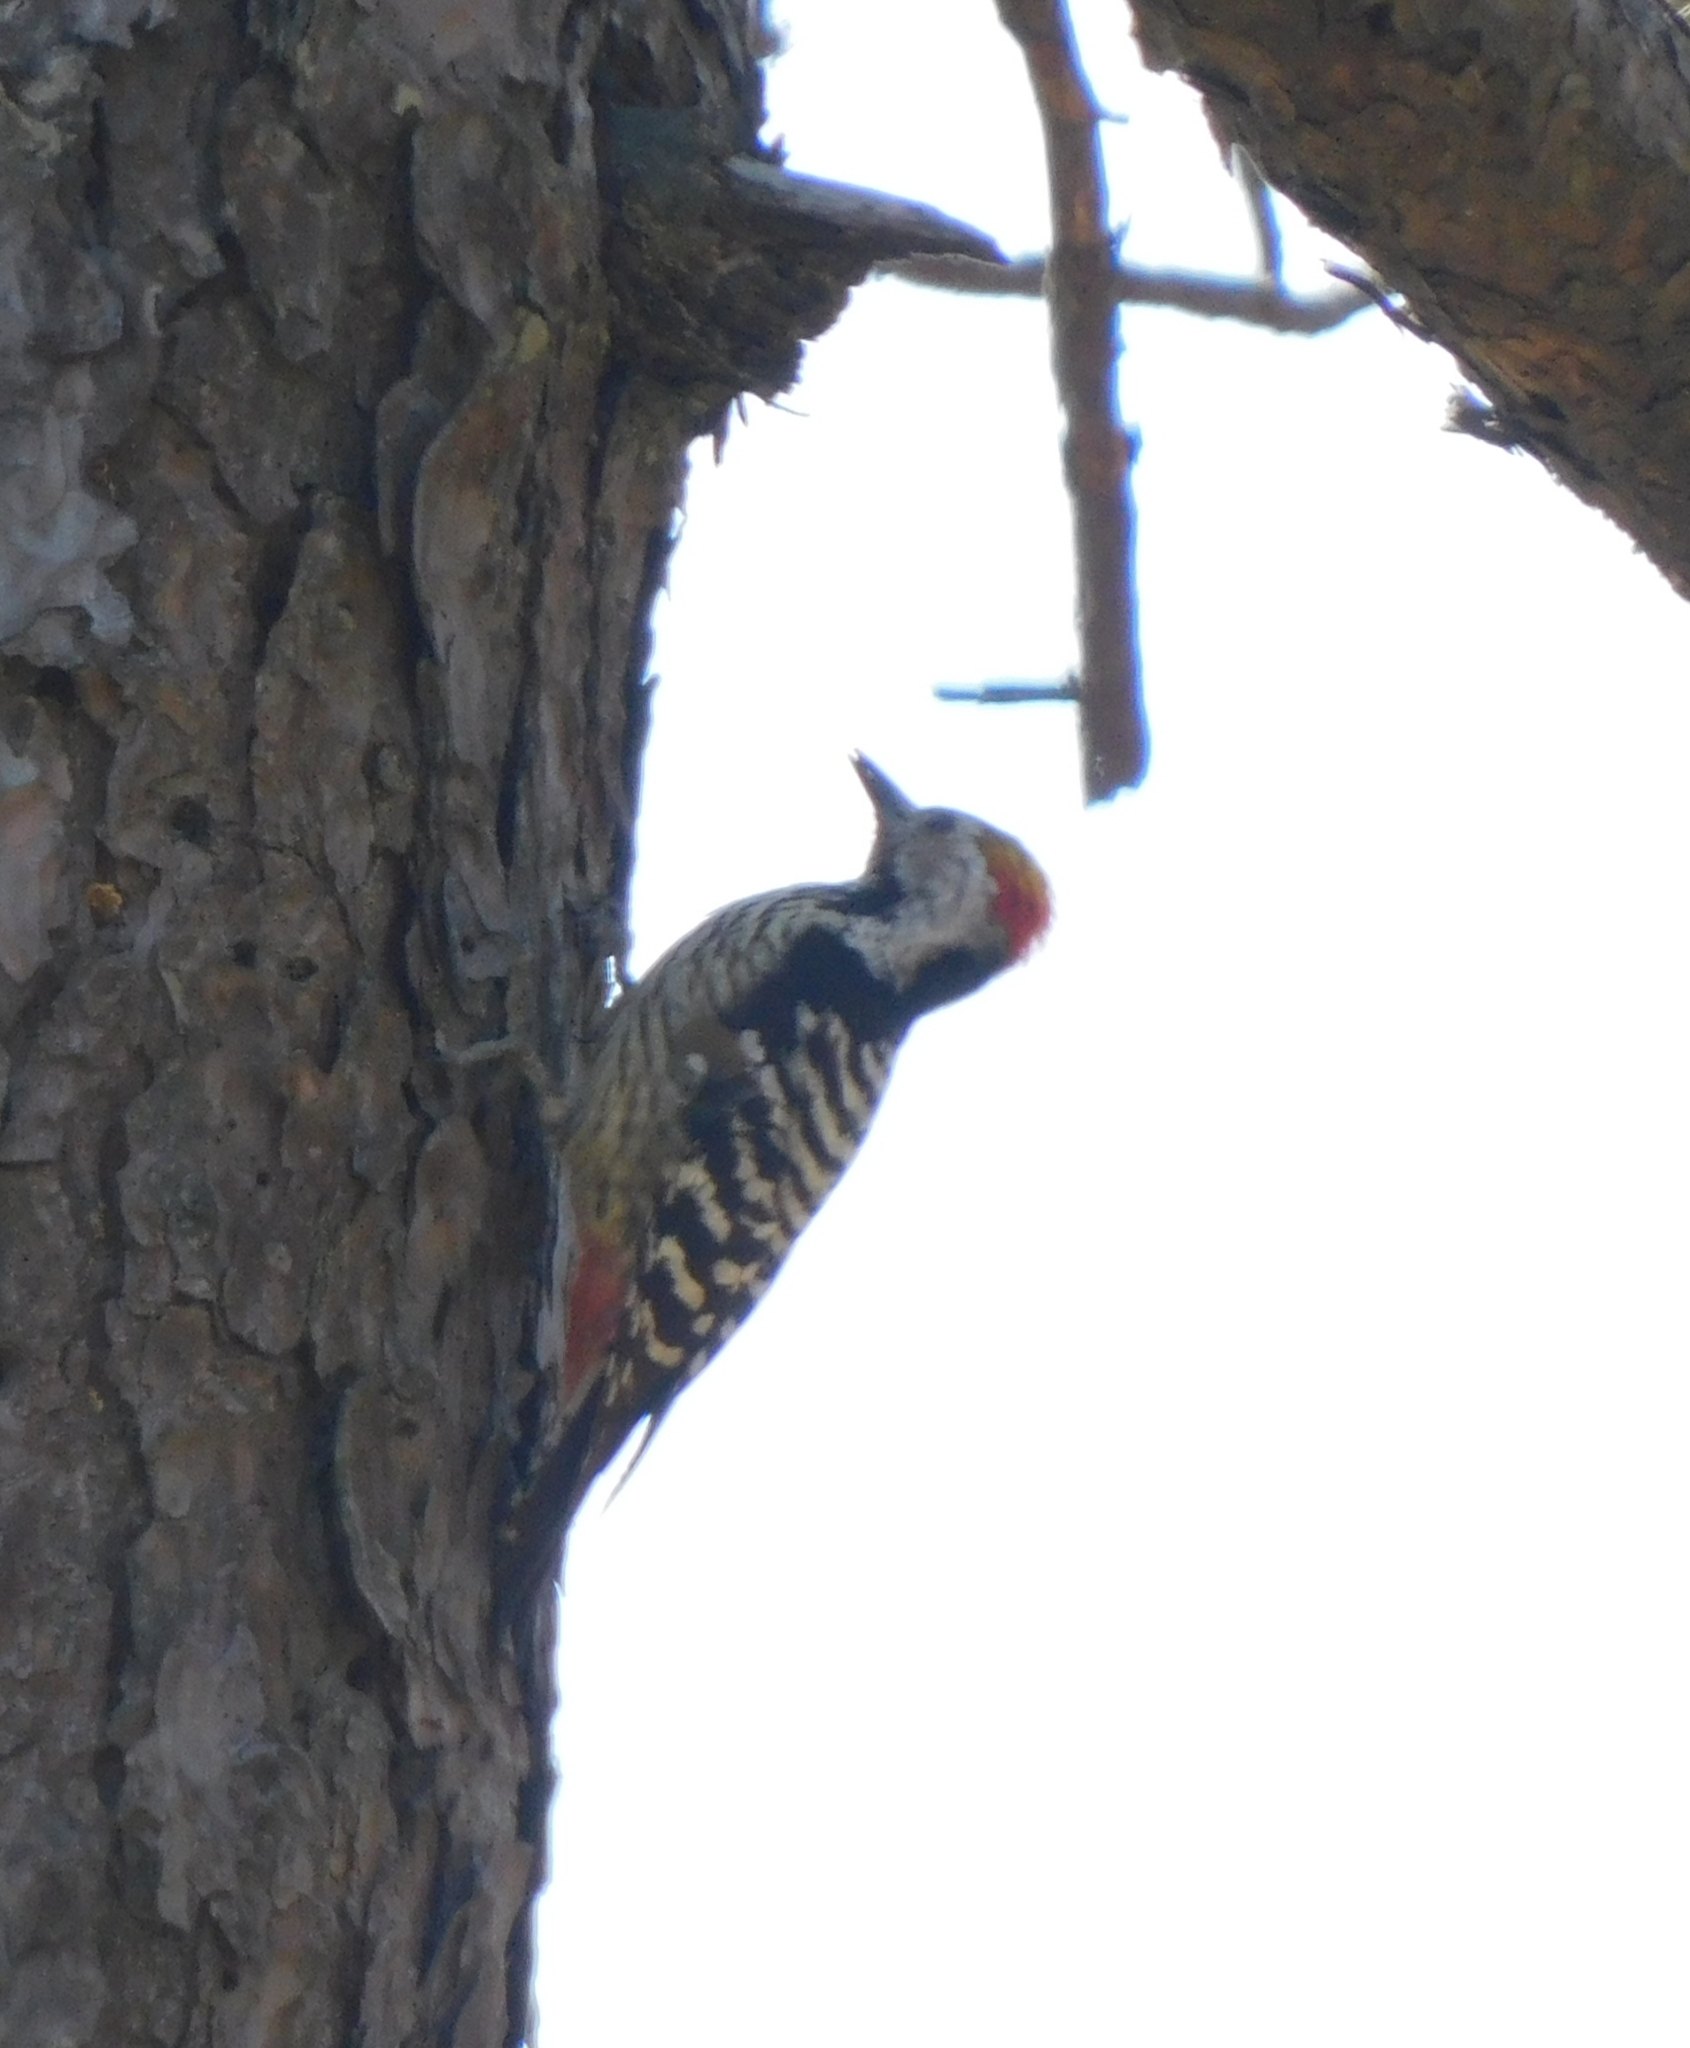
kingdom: Animalia
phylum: Chordata
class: Aves
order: Piciformes
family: Picidae
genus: Dendrocoptes
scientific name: Dendrocoptes auriceps
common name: Brown-fronted woodpecker
